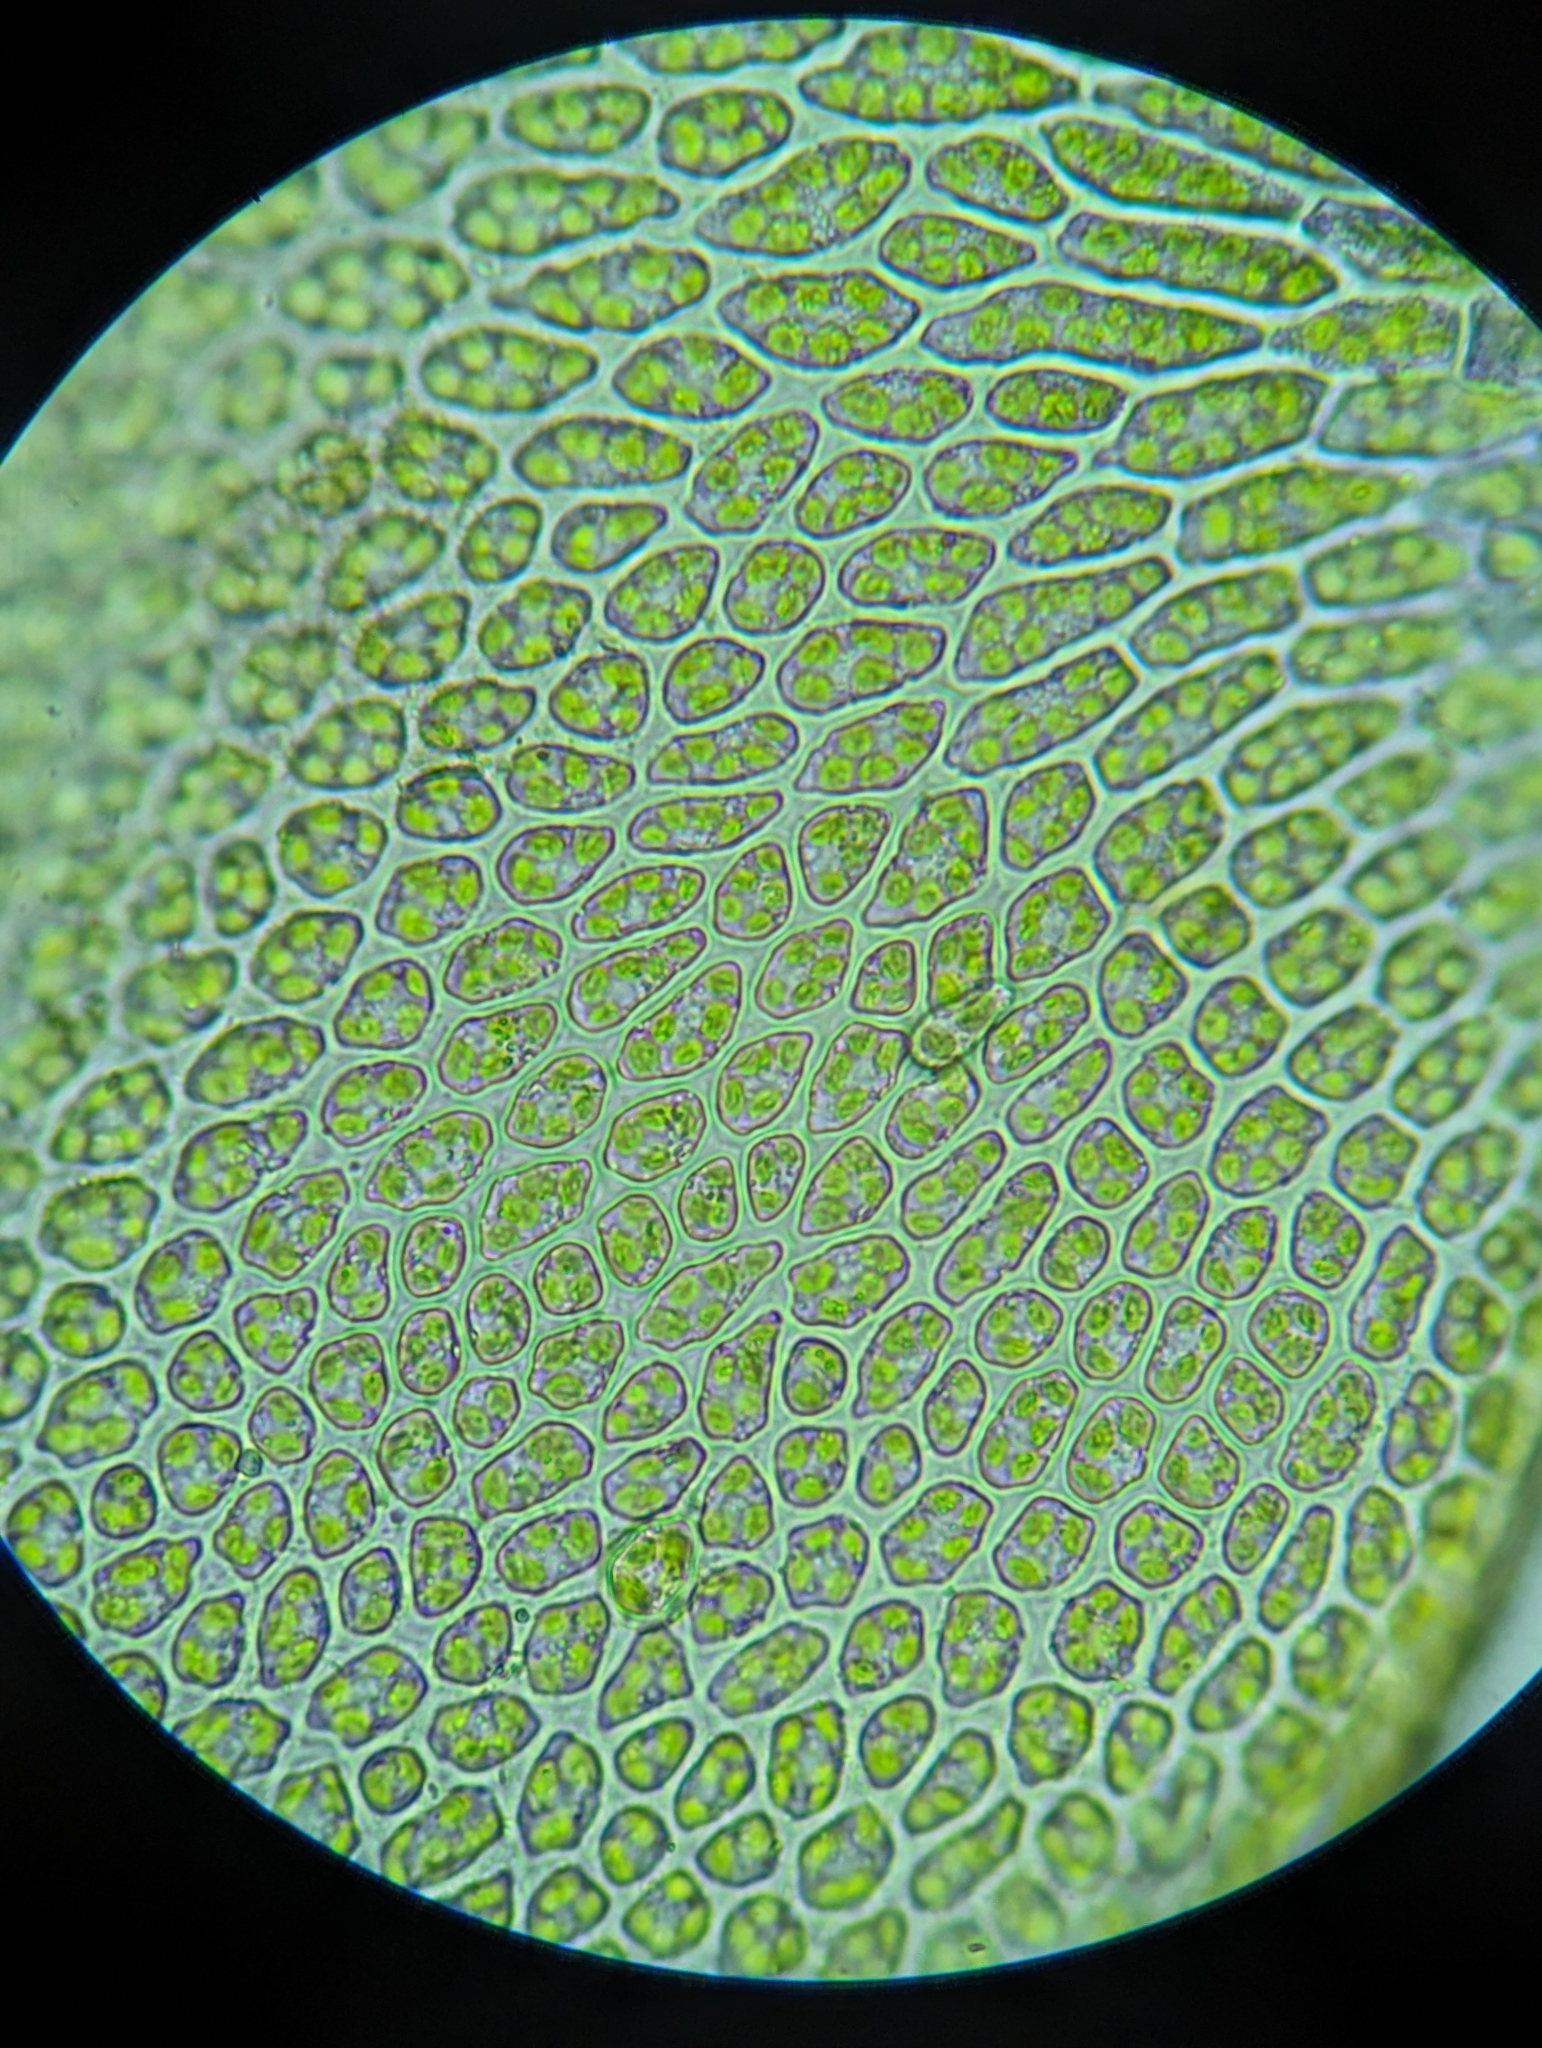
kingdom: Plantae
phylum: Bryophyta
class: Bryopsida
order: Aulacomniales
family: Aulacomniaceae
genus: Aulacomnium
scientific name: Aulacomnium heterostichum
